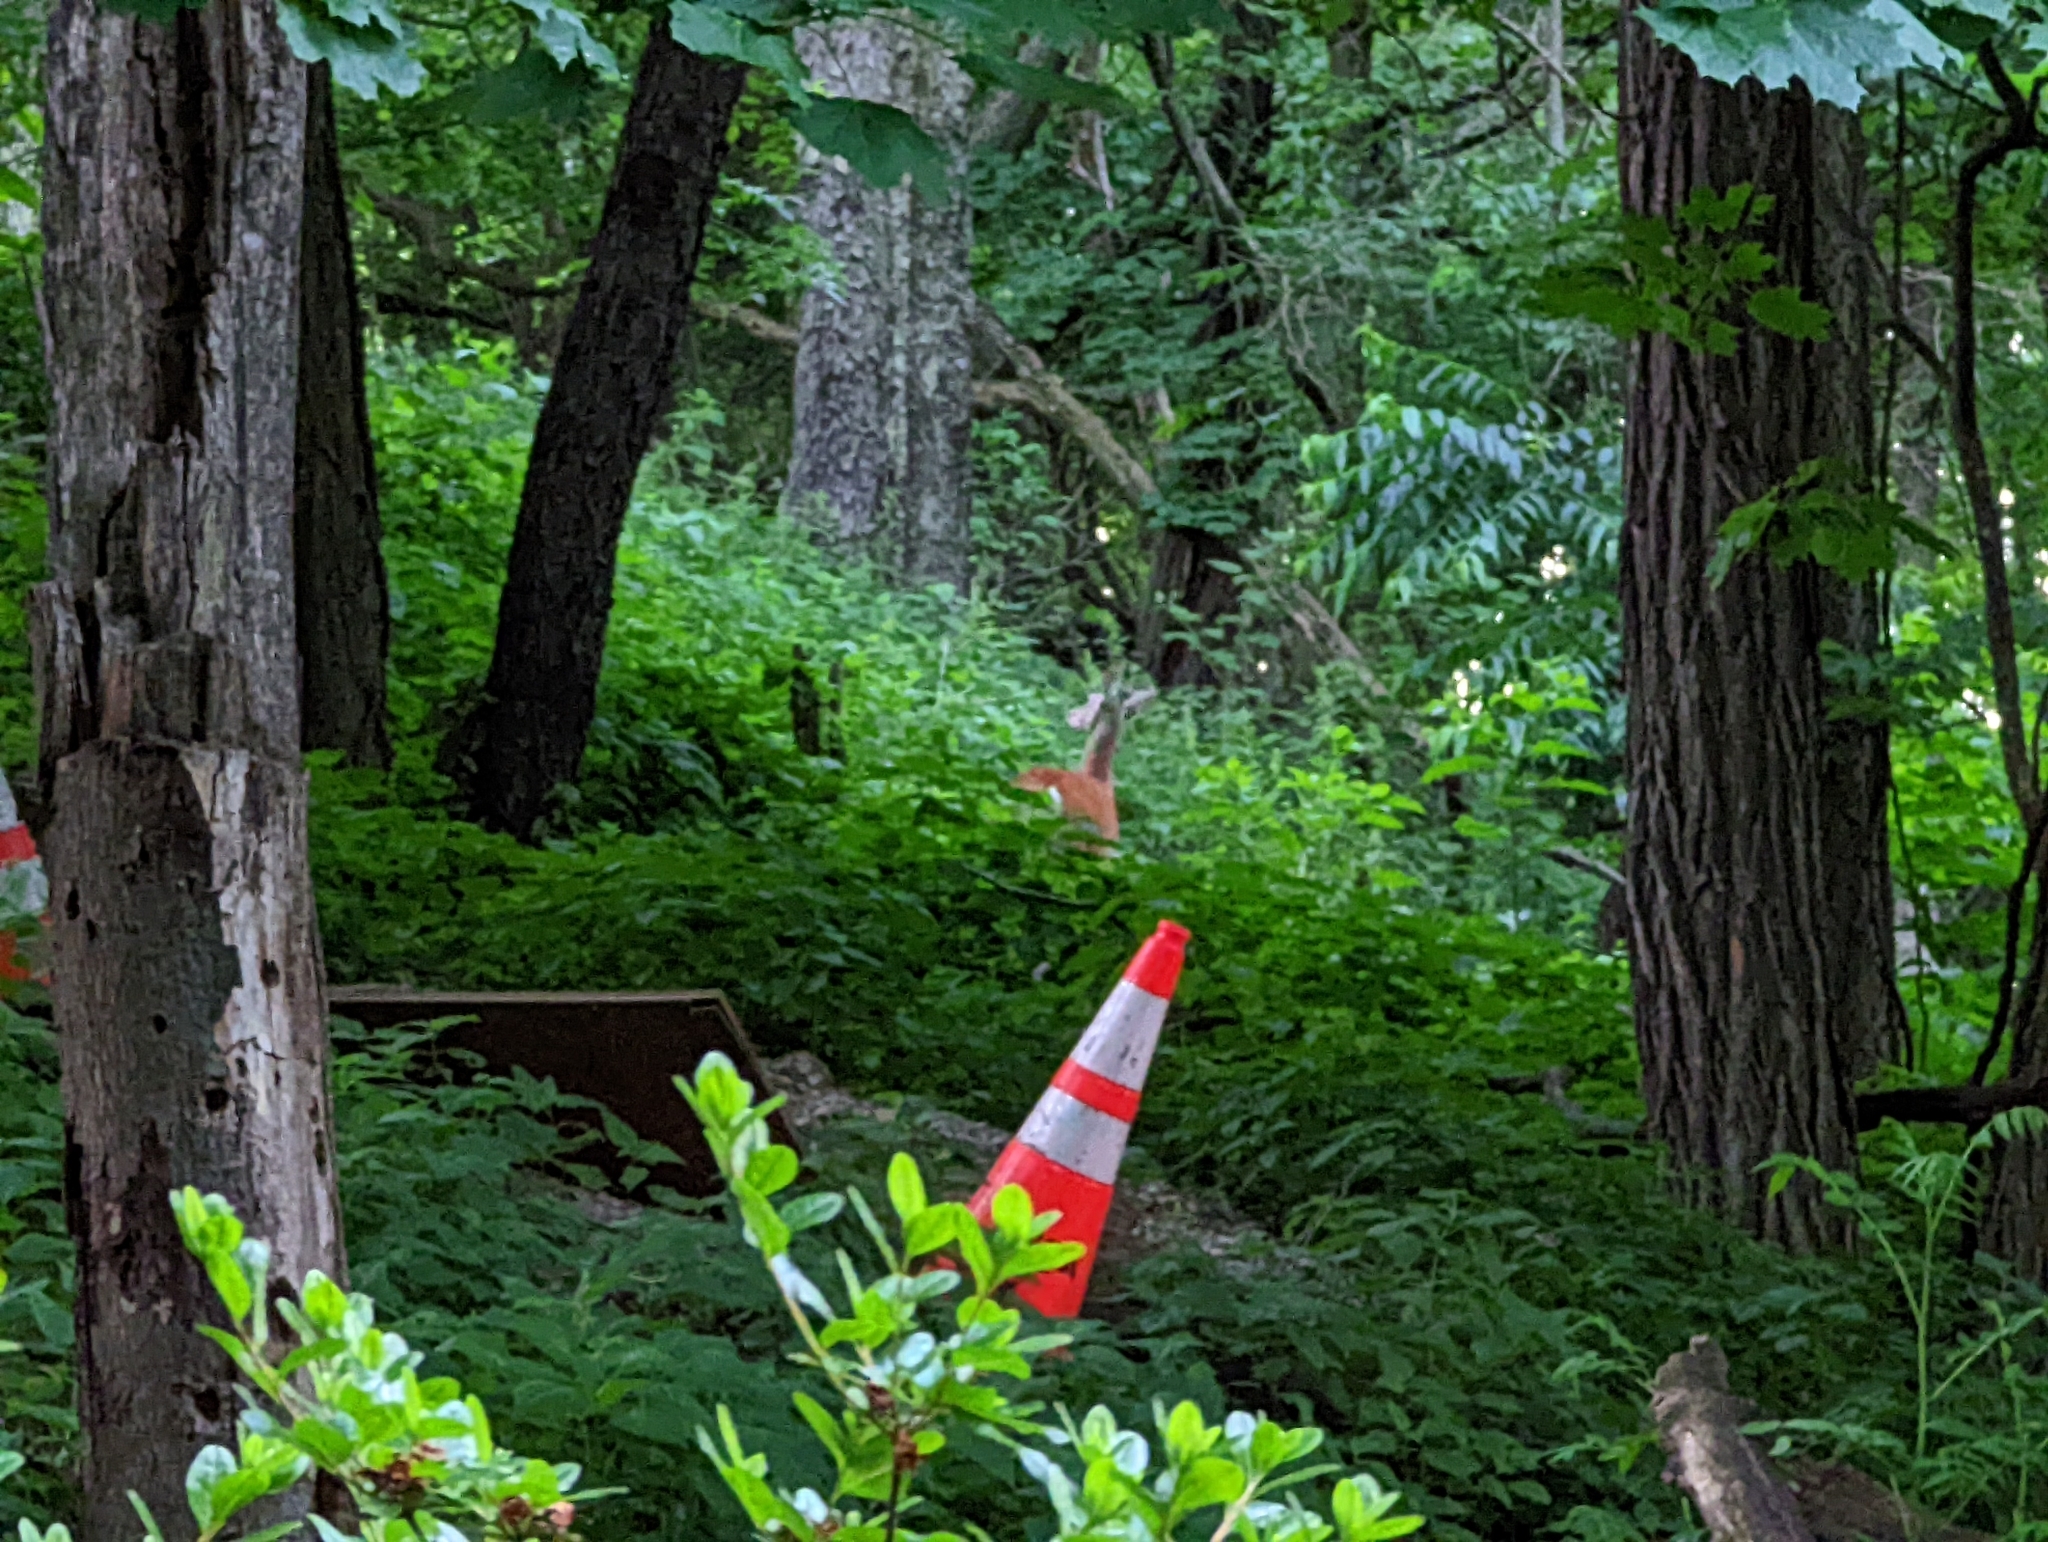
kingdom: Animalia
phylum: Chordata
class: Mammalia
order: Artiodactyla
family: Cervidae
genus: Odocoileus
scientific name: Odocoileus virginianus
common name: White-tailed deer
